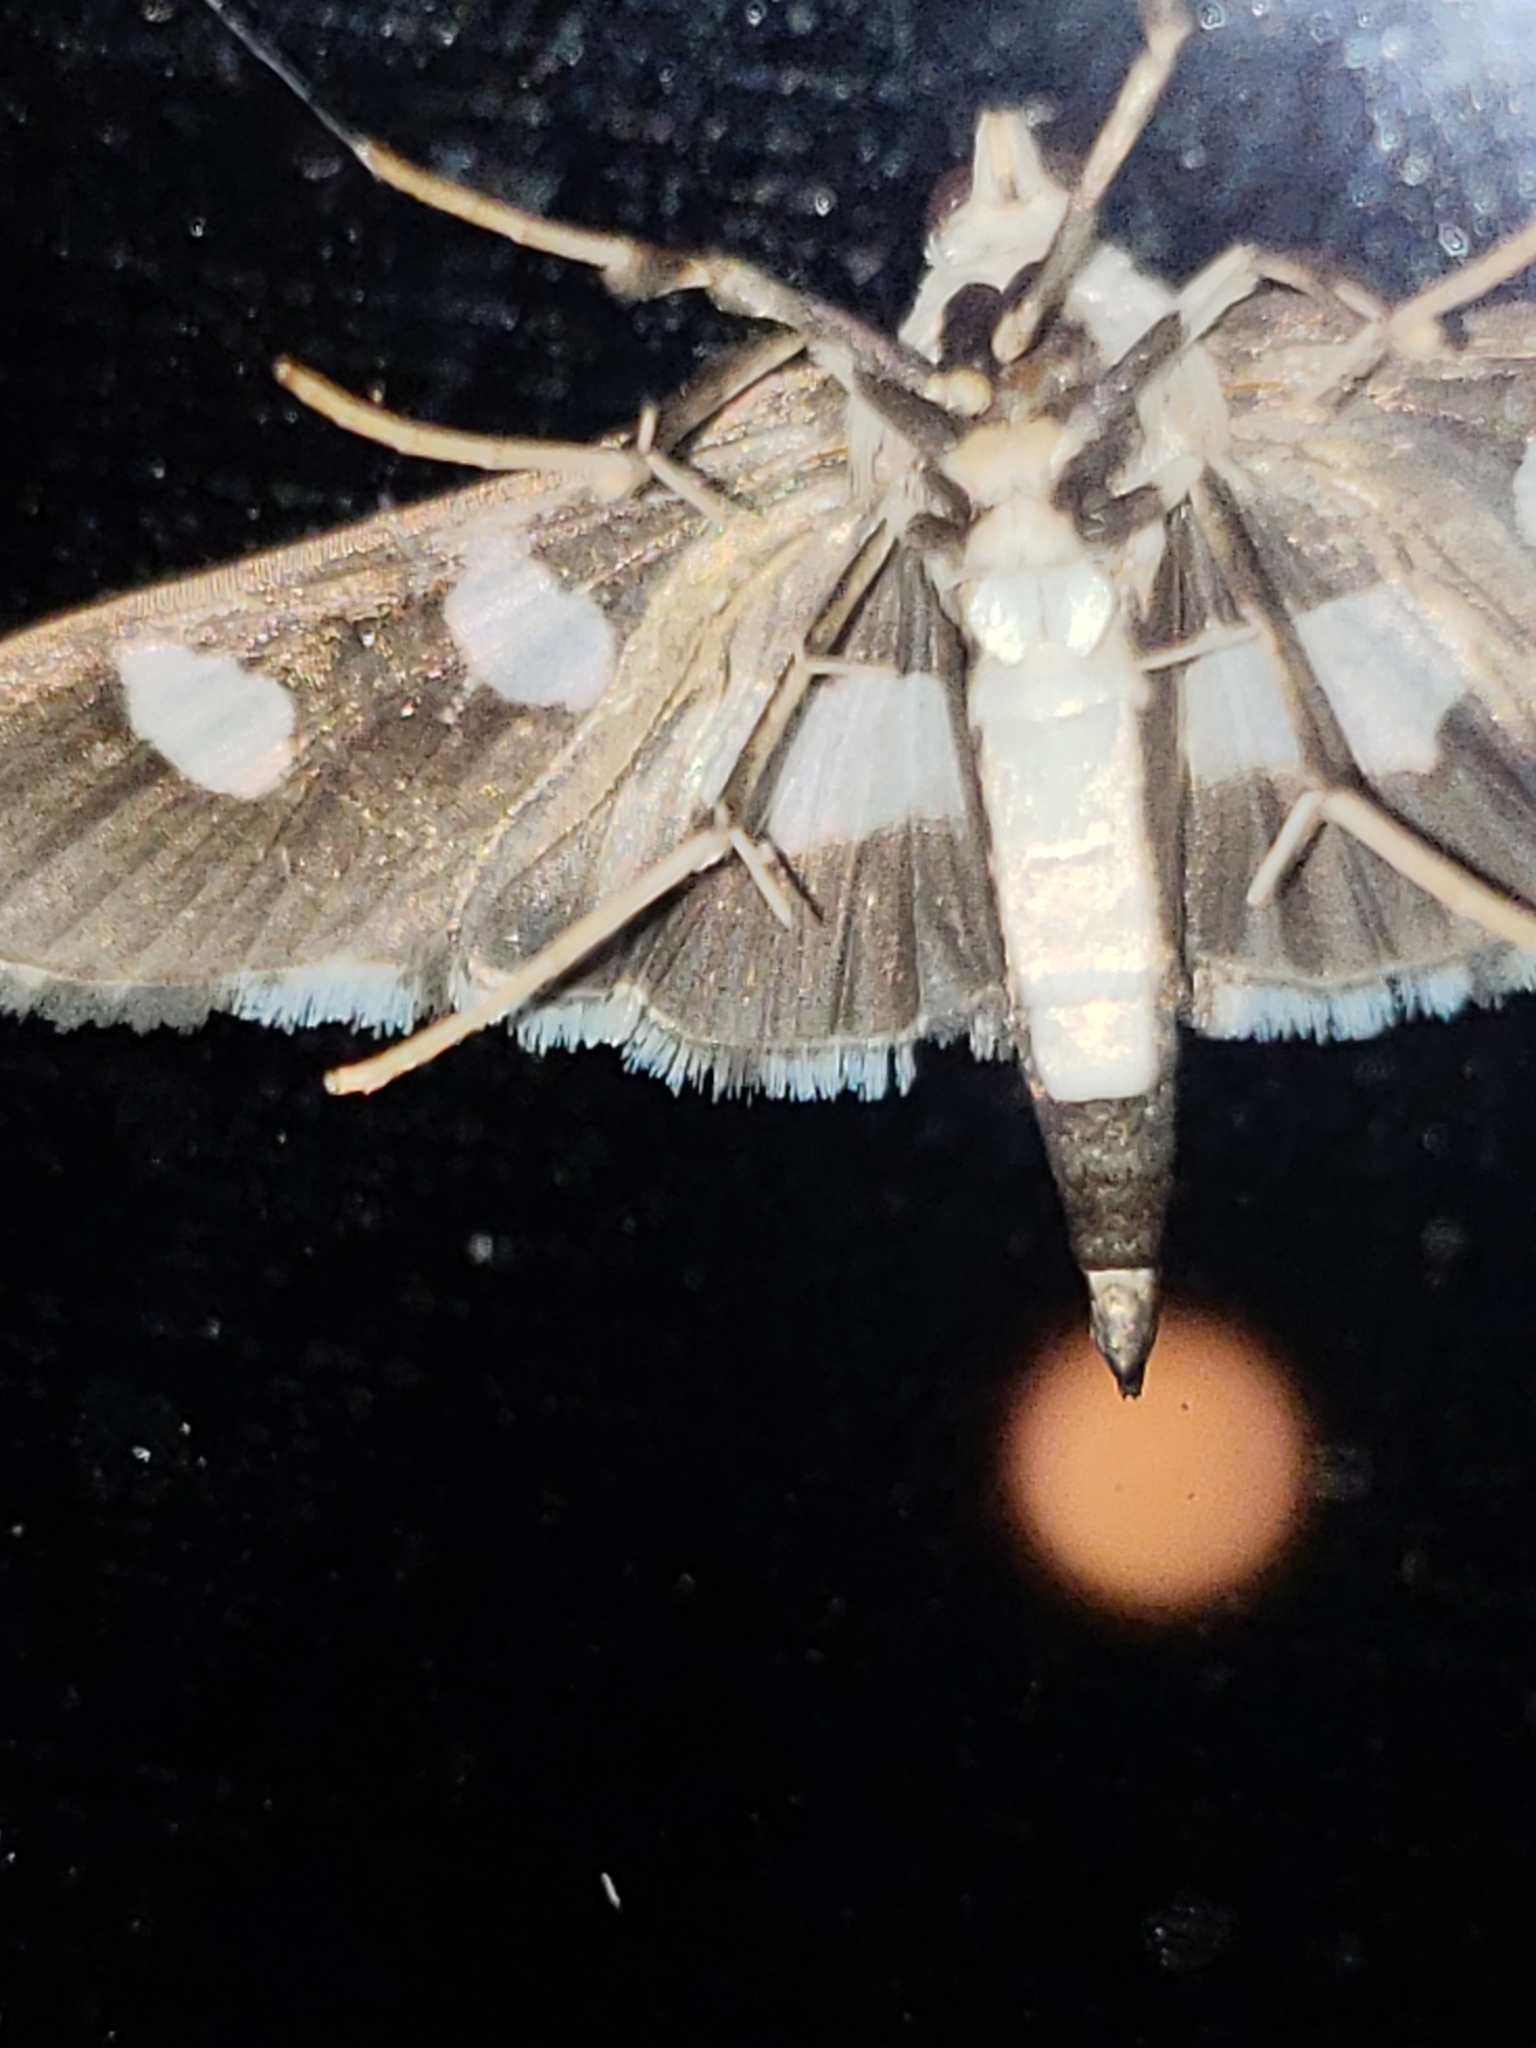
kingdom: Animalia
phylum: Arthropoda
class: Insecta
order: Lepidoptera
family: Crambidae
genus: Desmia
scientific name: Desmia funeralis
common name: Grape leaf folder moth
